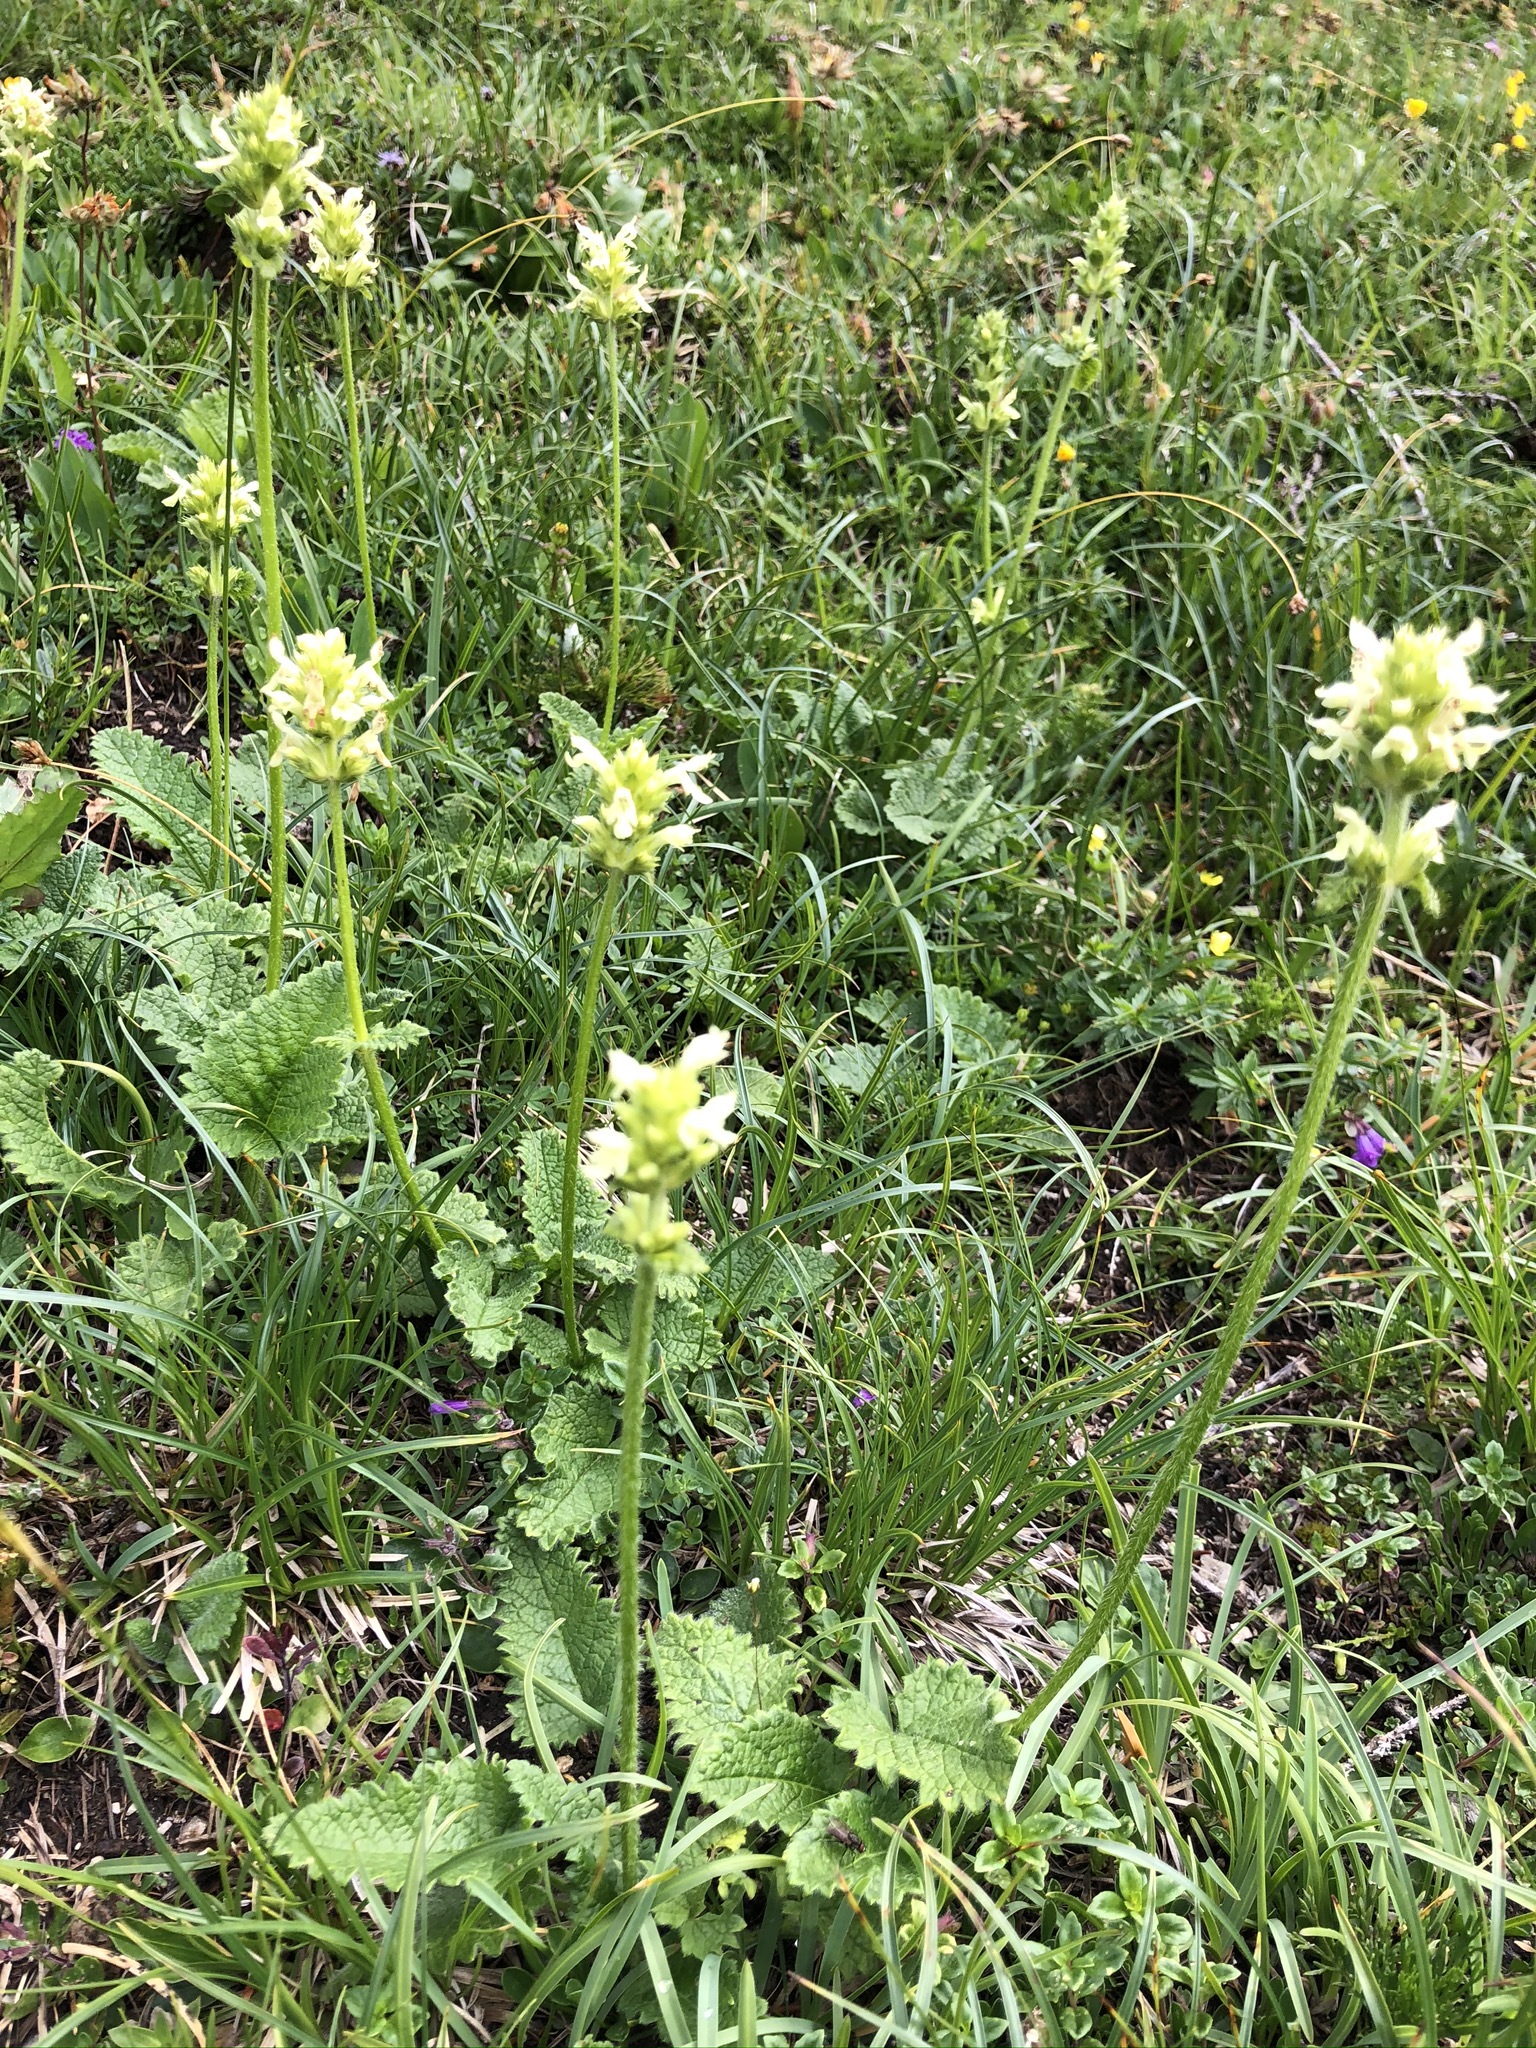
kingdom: Plantae
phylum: Tracheophyta
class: Magnoliopsida
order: Lamiales
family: Lamiaceae
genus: Betonica
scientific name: Betonica alopecuros
